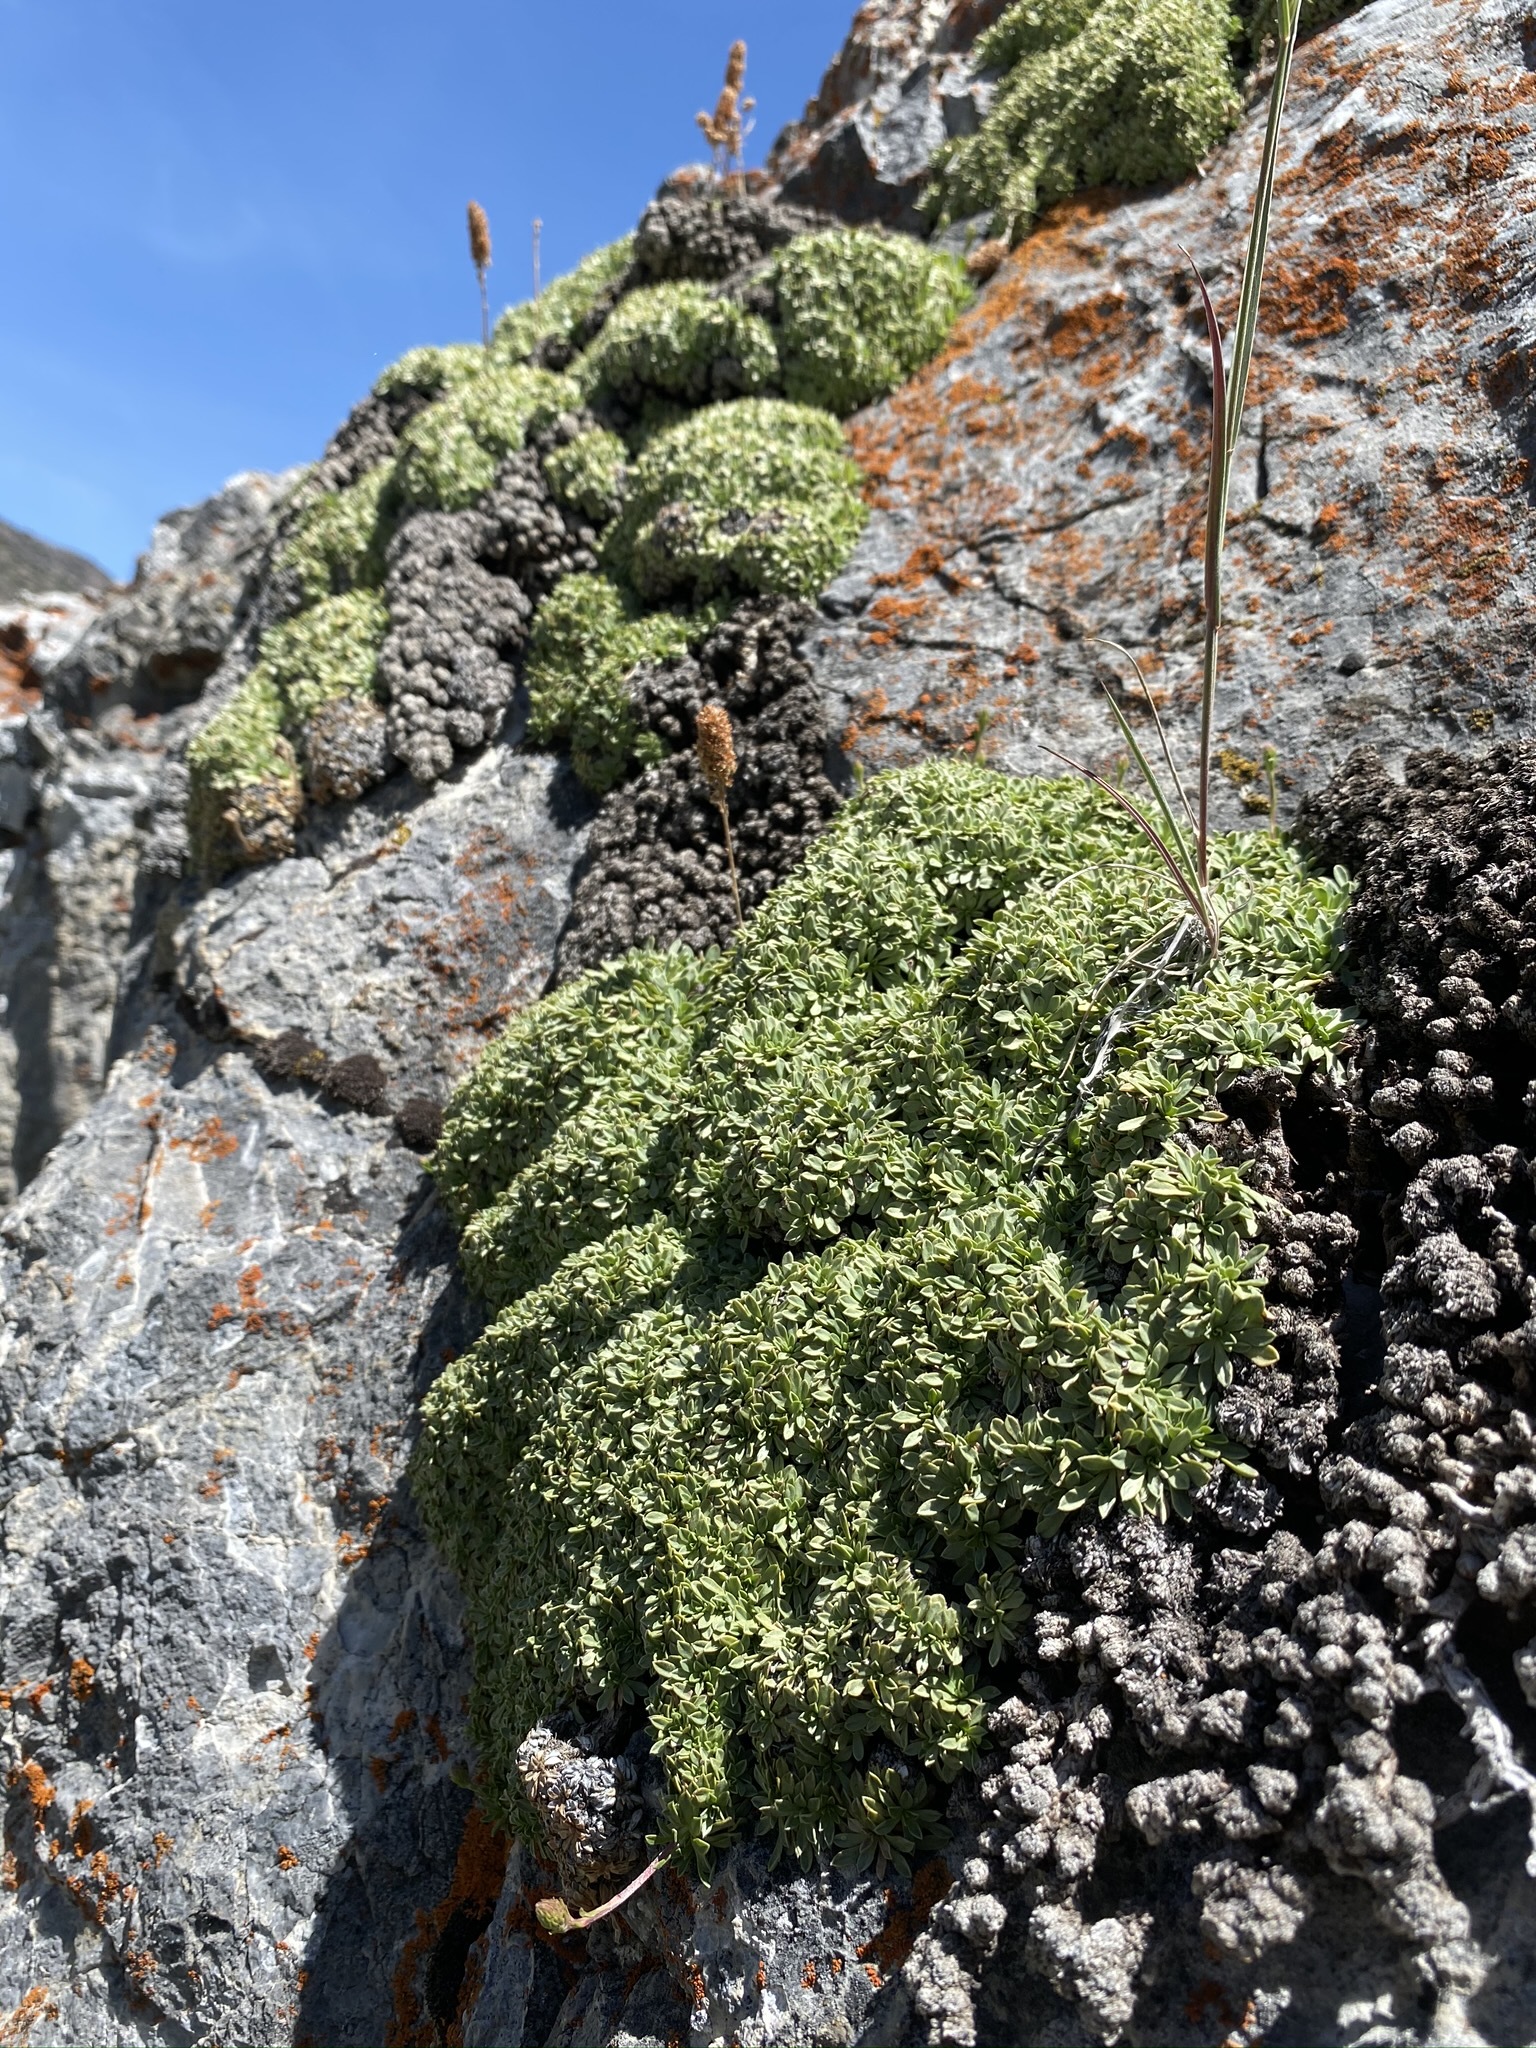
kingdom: Plantae
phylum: Tracheophyta
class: Magnoliopsida
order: Rosales
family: Rosaceae
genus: Petrophytum
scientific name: Petrophytum caespitosum
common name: Mat rockspirea
